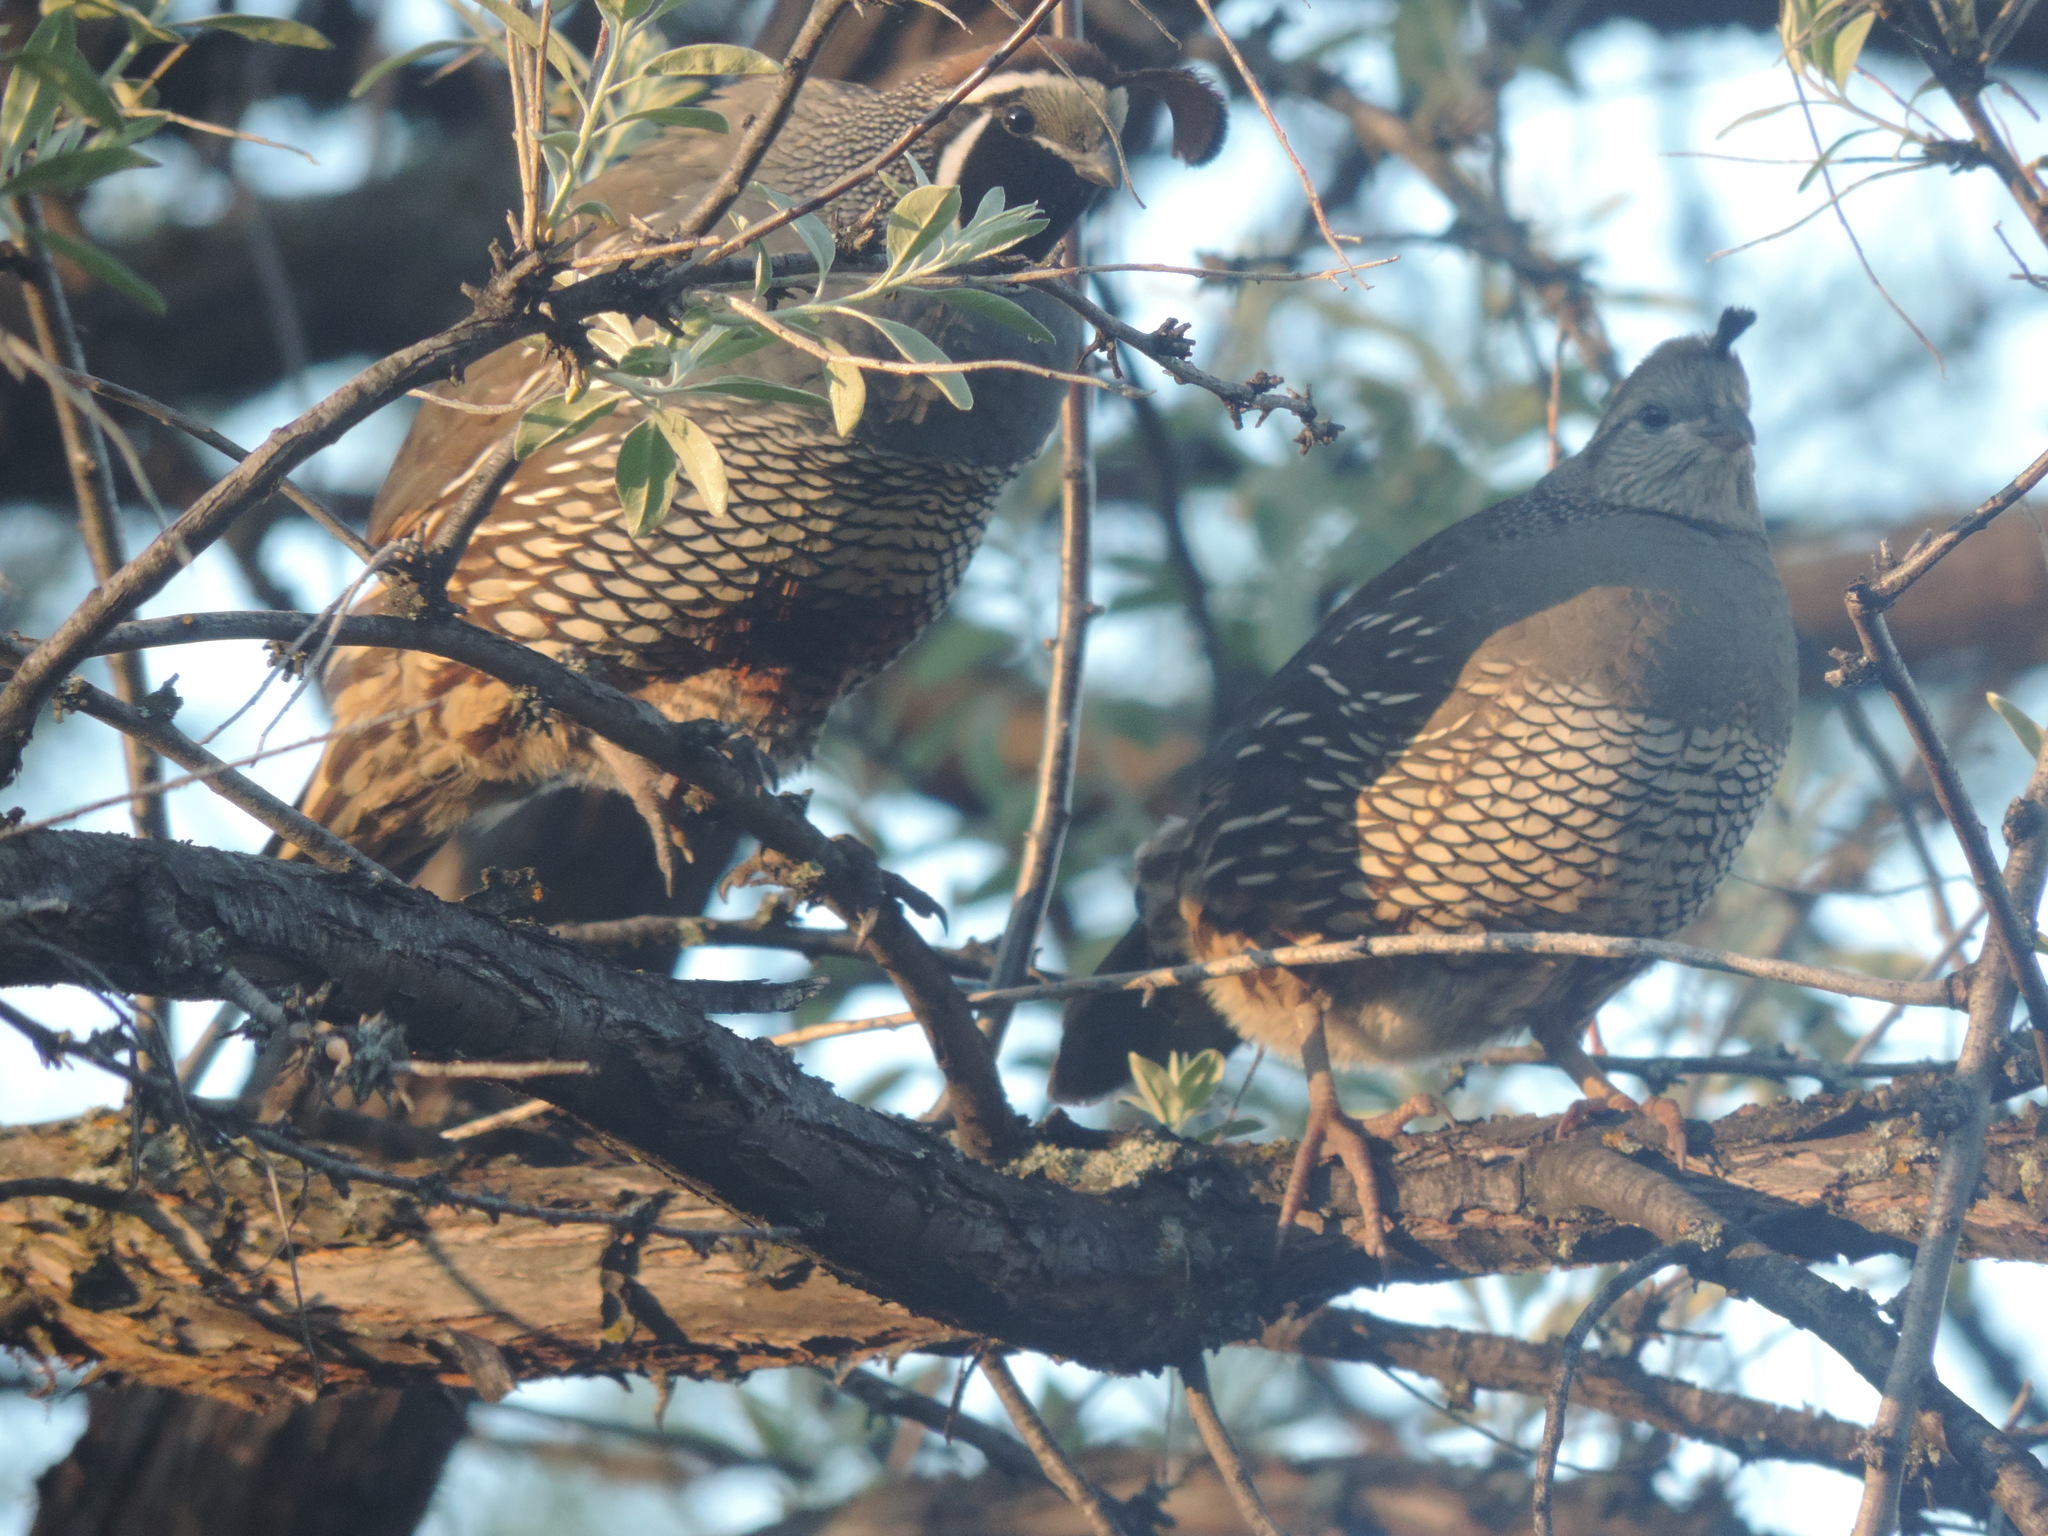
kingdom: Animalia
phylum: Chordata
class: Aves
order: Galliformes
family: Odontophoridae
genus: Callipepla
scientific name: Callipepla californica
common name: California quail
